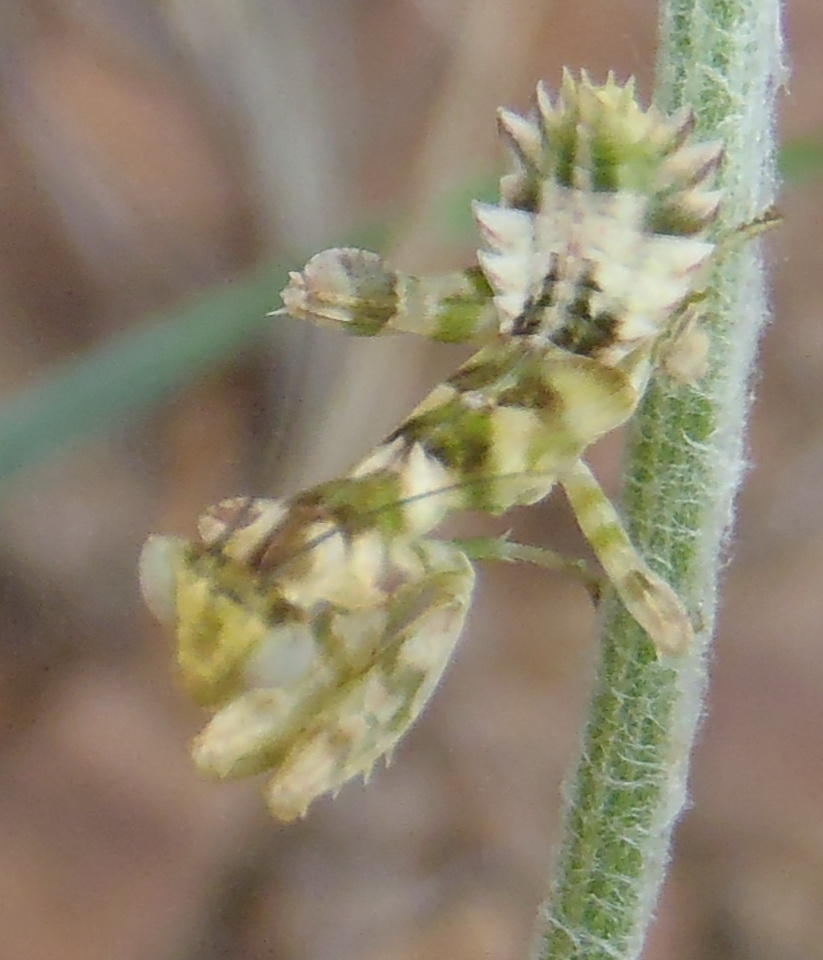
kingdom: Animalia
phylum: Arthropoda
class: Insecta
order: Mantodea
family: Galinthiadidae
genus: Harpagomantis
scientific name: Harpagomantis tricolor
